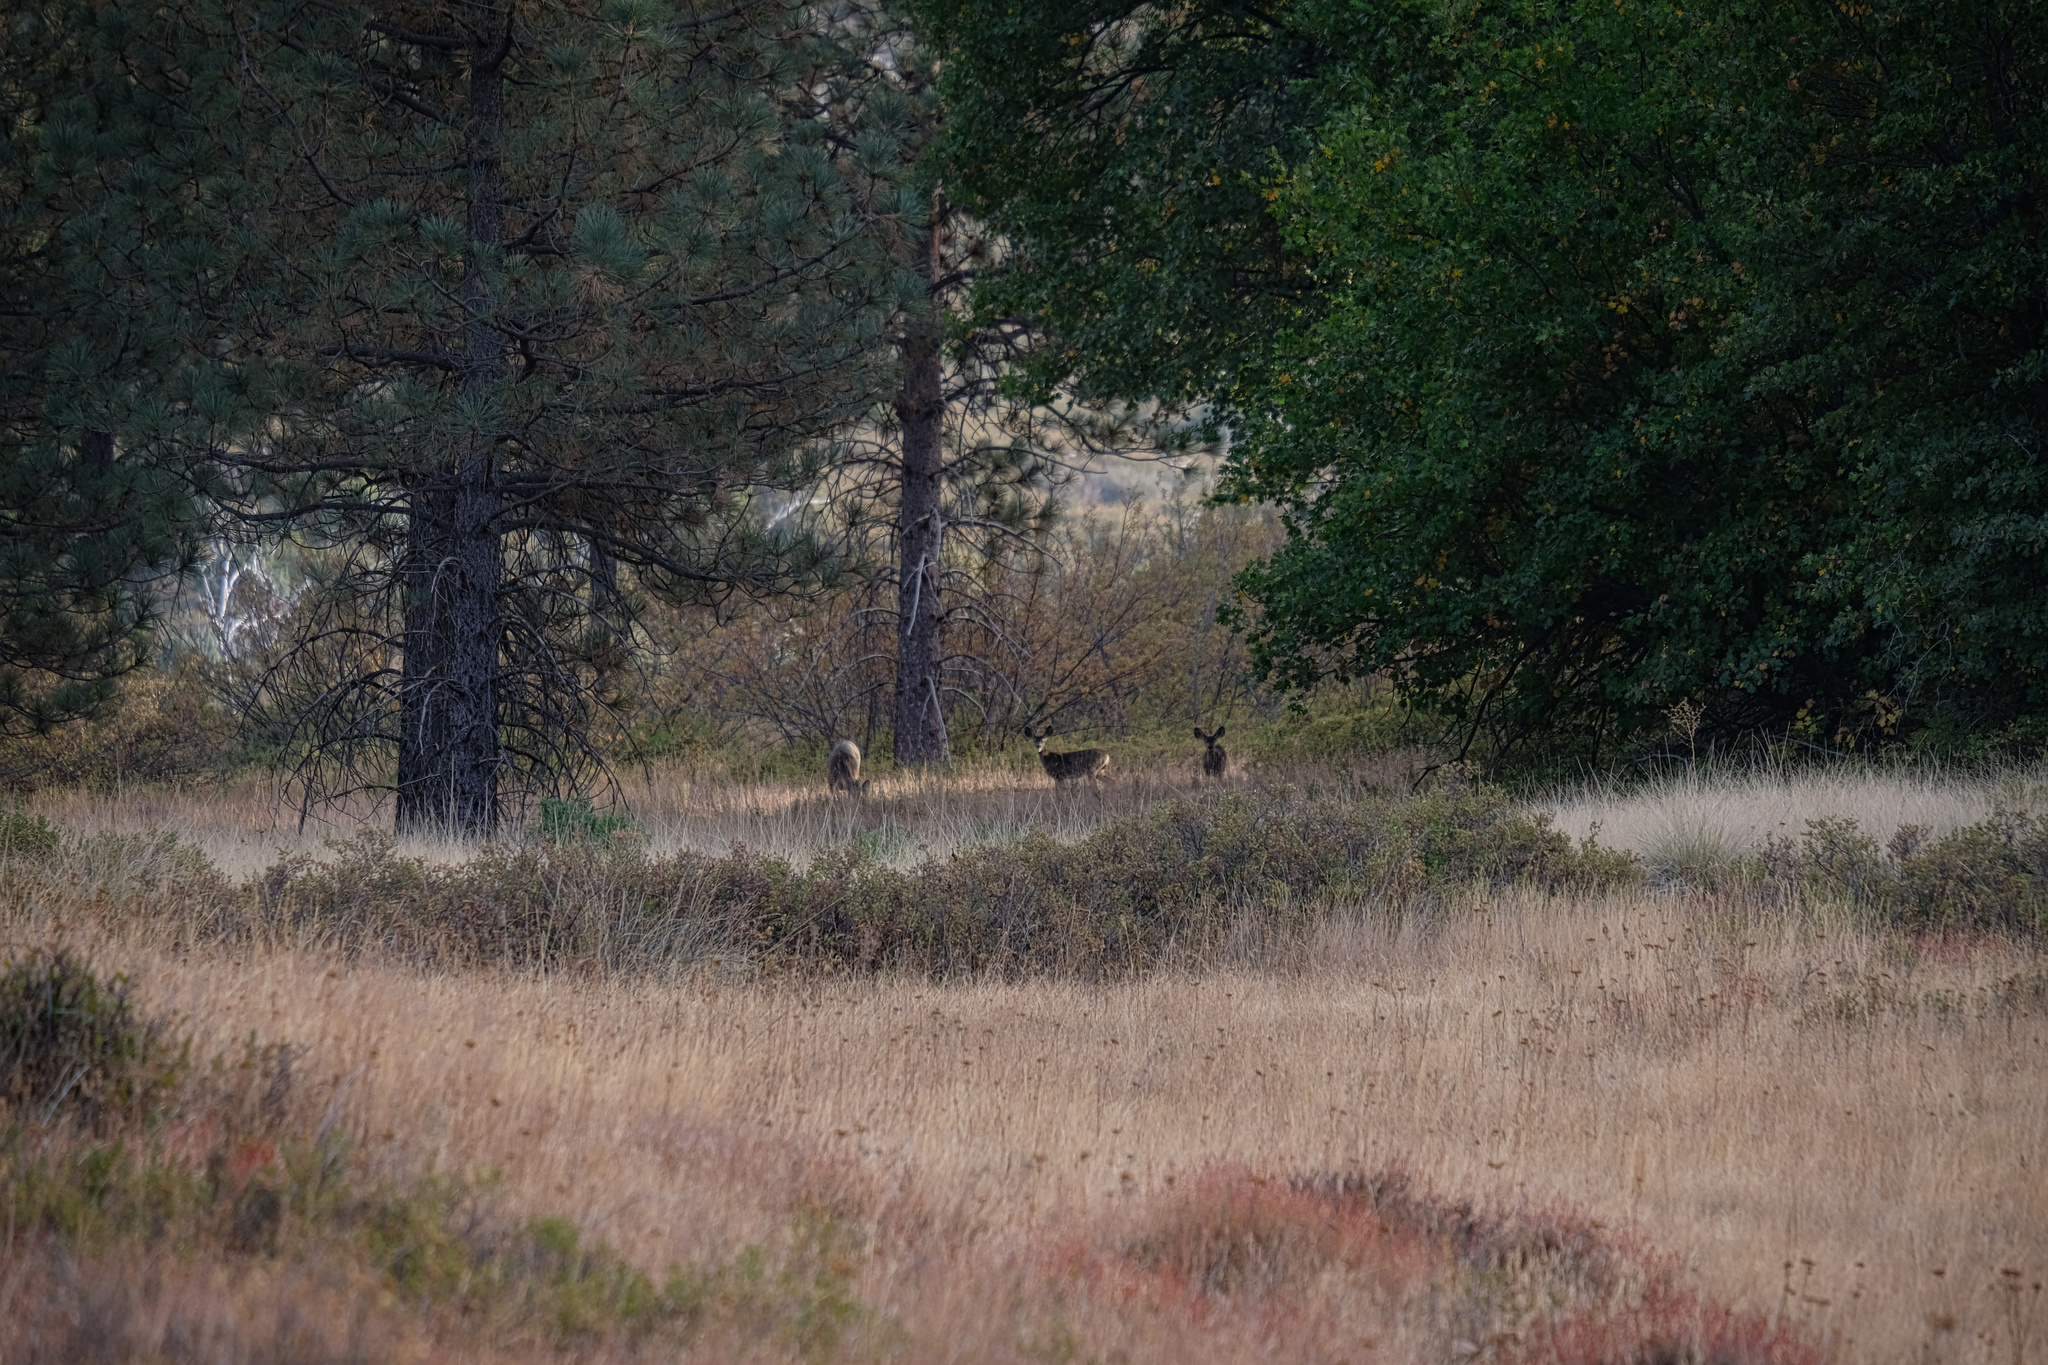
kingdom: Animalia
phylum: Chordata
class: Mammalia
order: Artiodactyla
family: Cervidae
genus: Odocoileus
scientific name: Odocoileus hemionus
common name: Mule deer
